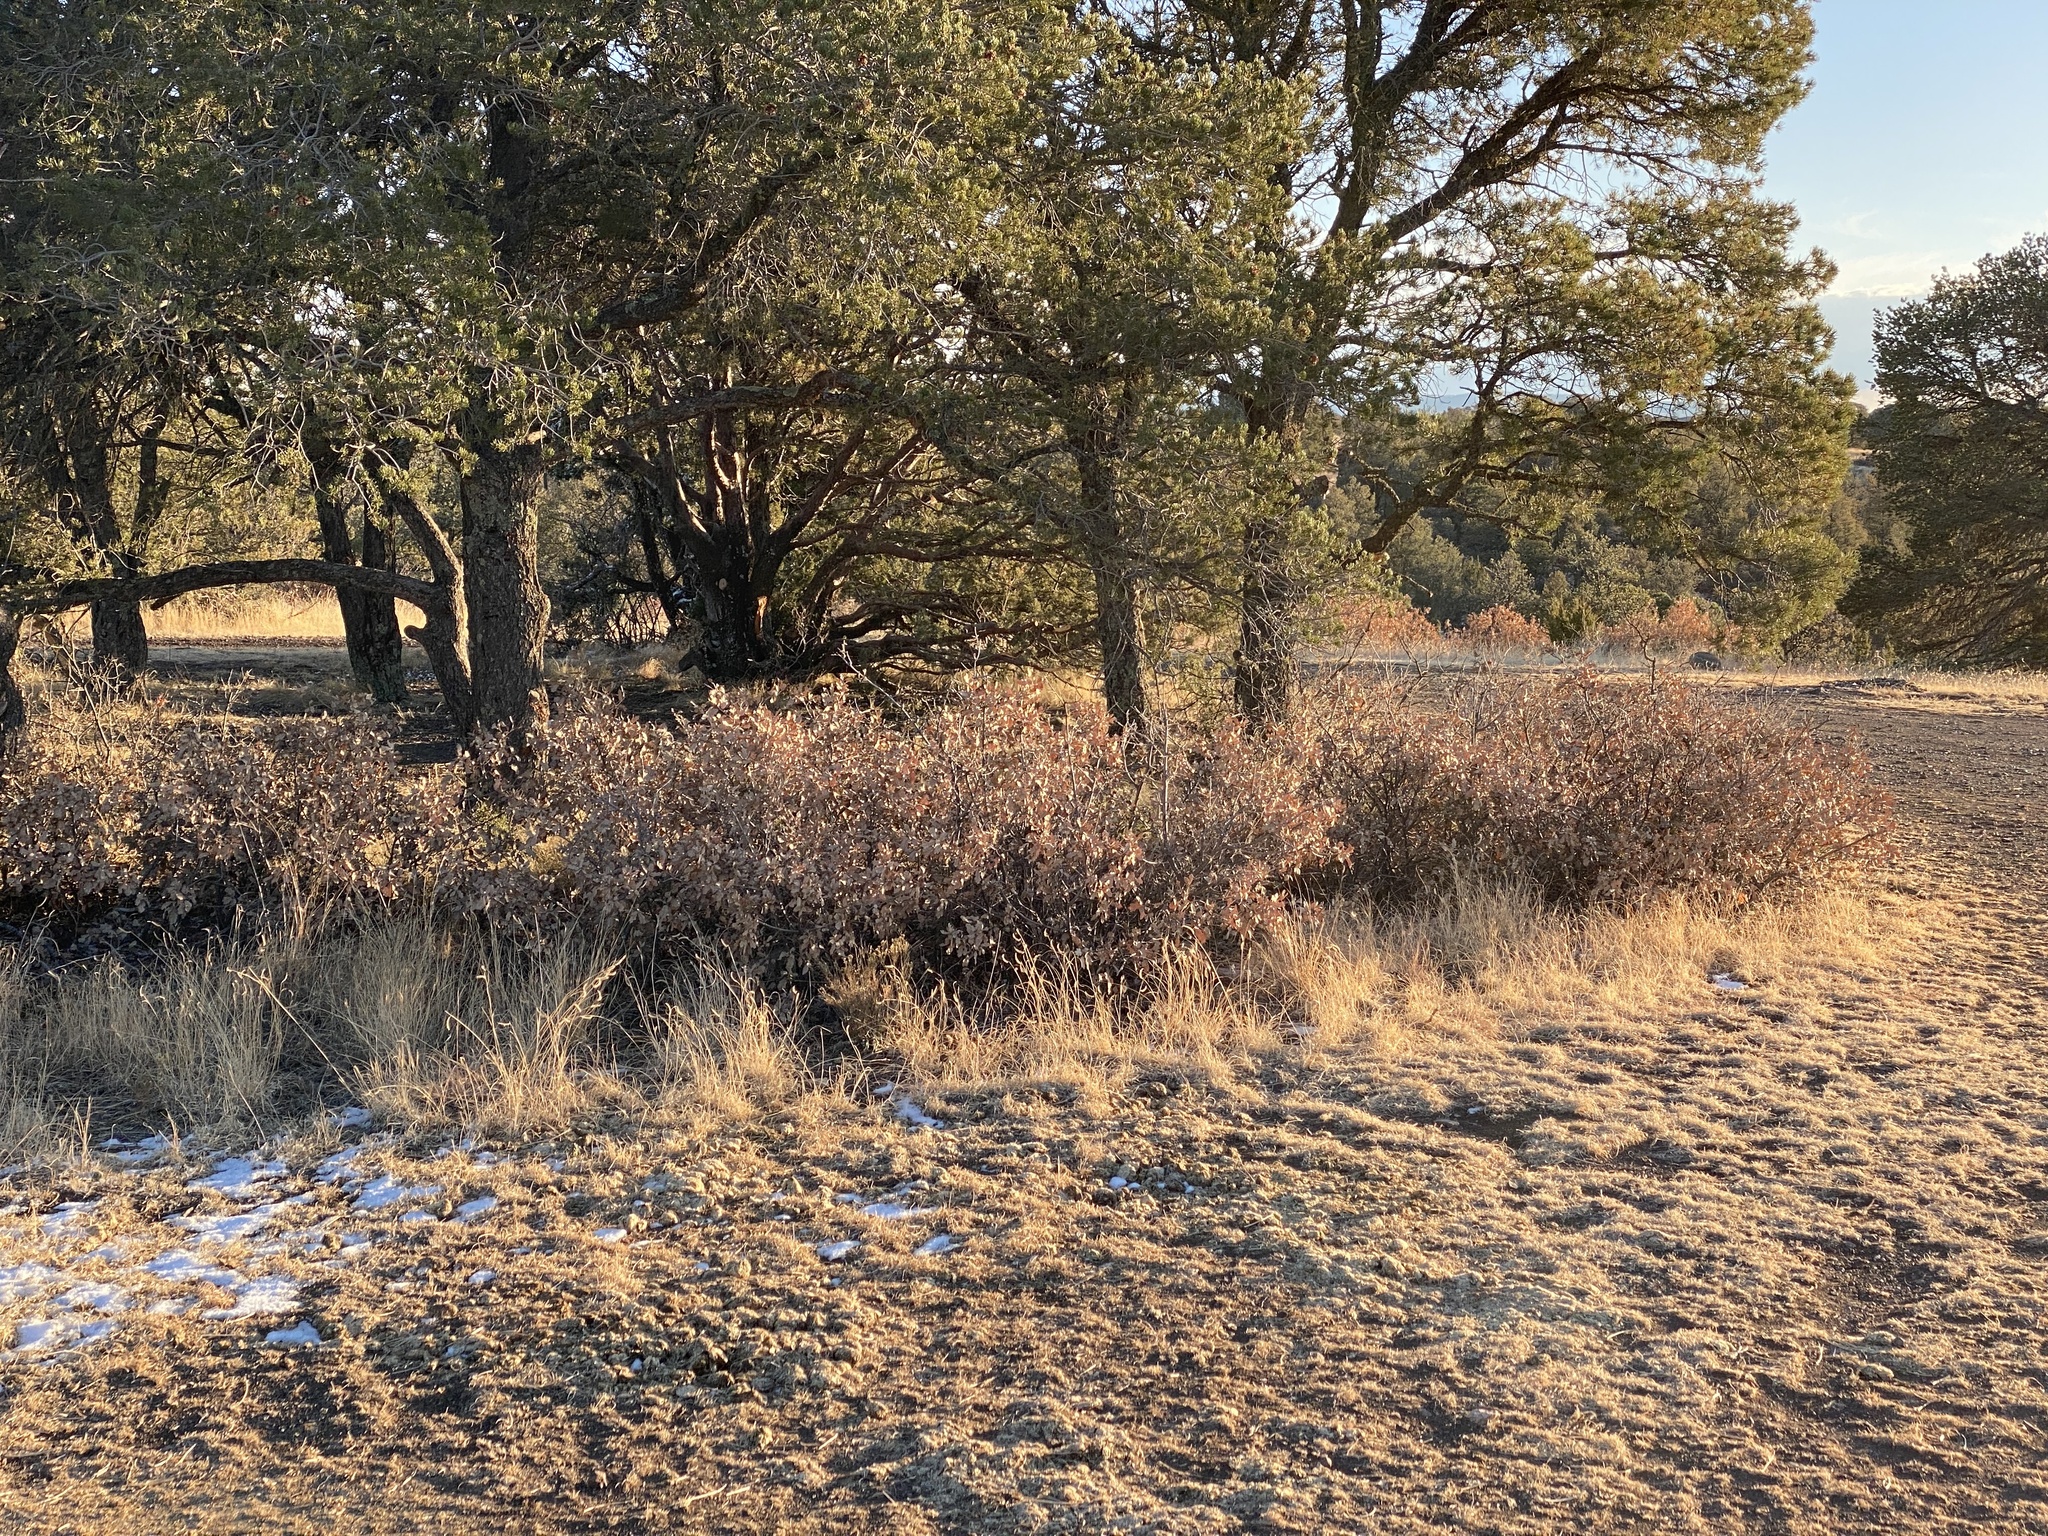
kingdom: Plantae
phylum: Tracheophyta
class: Magnoliopsida
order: Fagales
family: Fagaceae
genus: Quercus
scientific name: Quercus undulata
